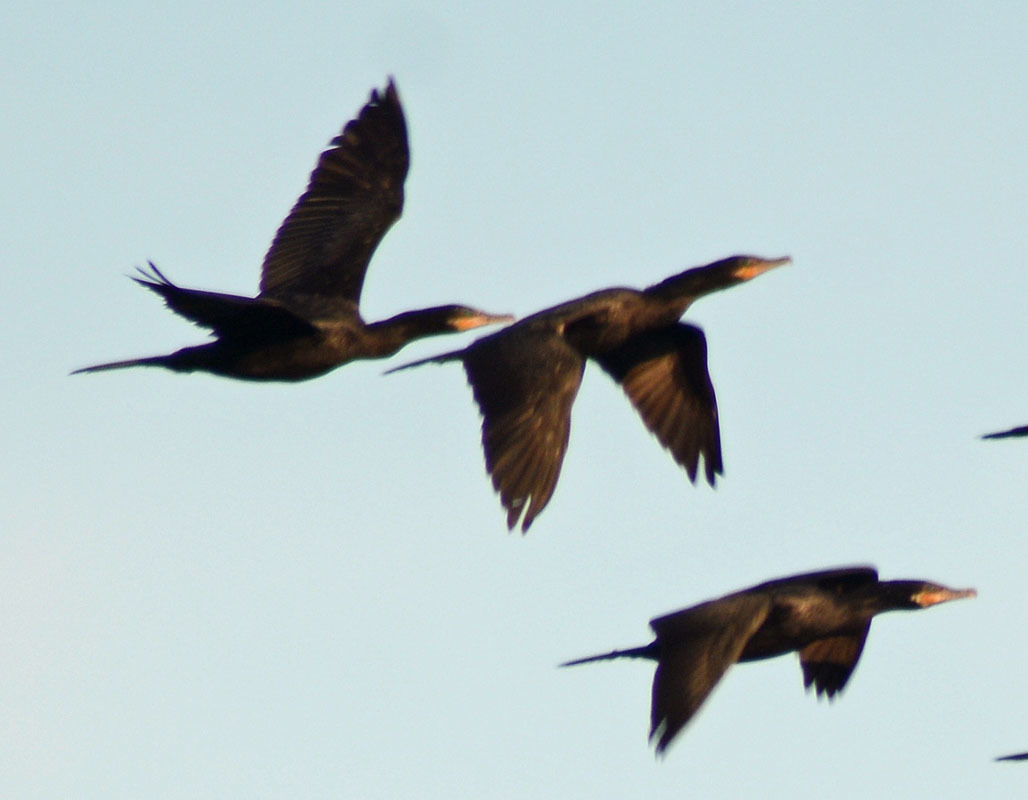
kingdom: Animalia
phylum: Chordata
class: Aves
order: Suliformes
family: Phalacrocoracidae
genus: Phalacrocorax
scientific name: Phalacrocorax brasilianus
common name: Neotropic cormorant
